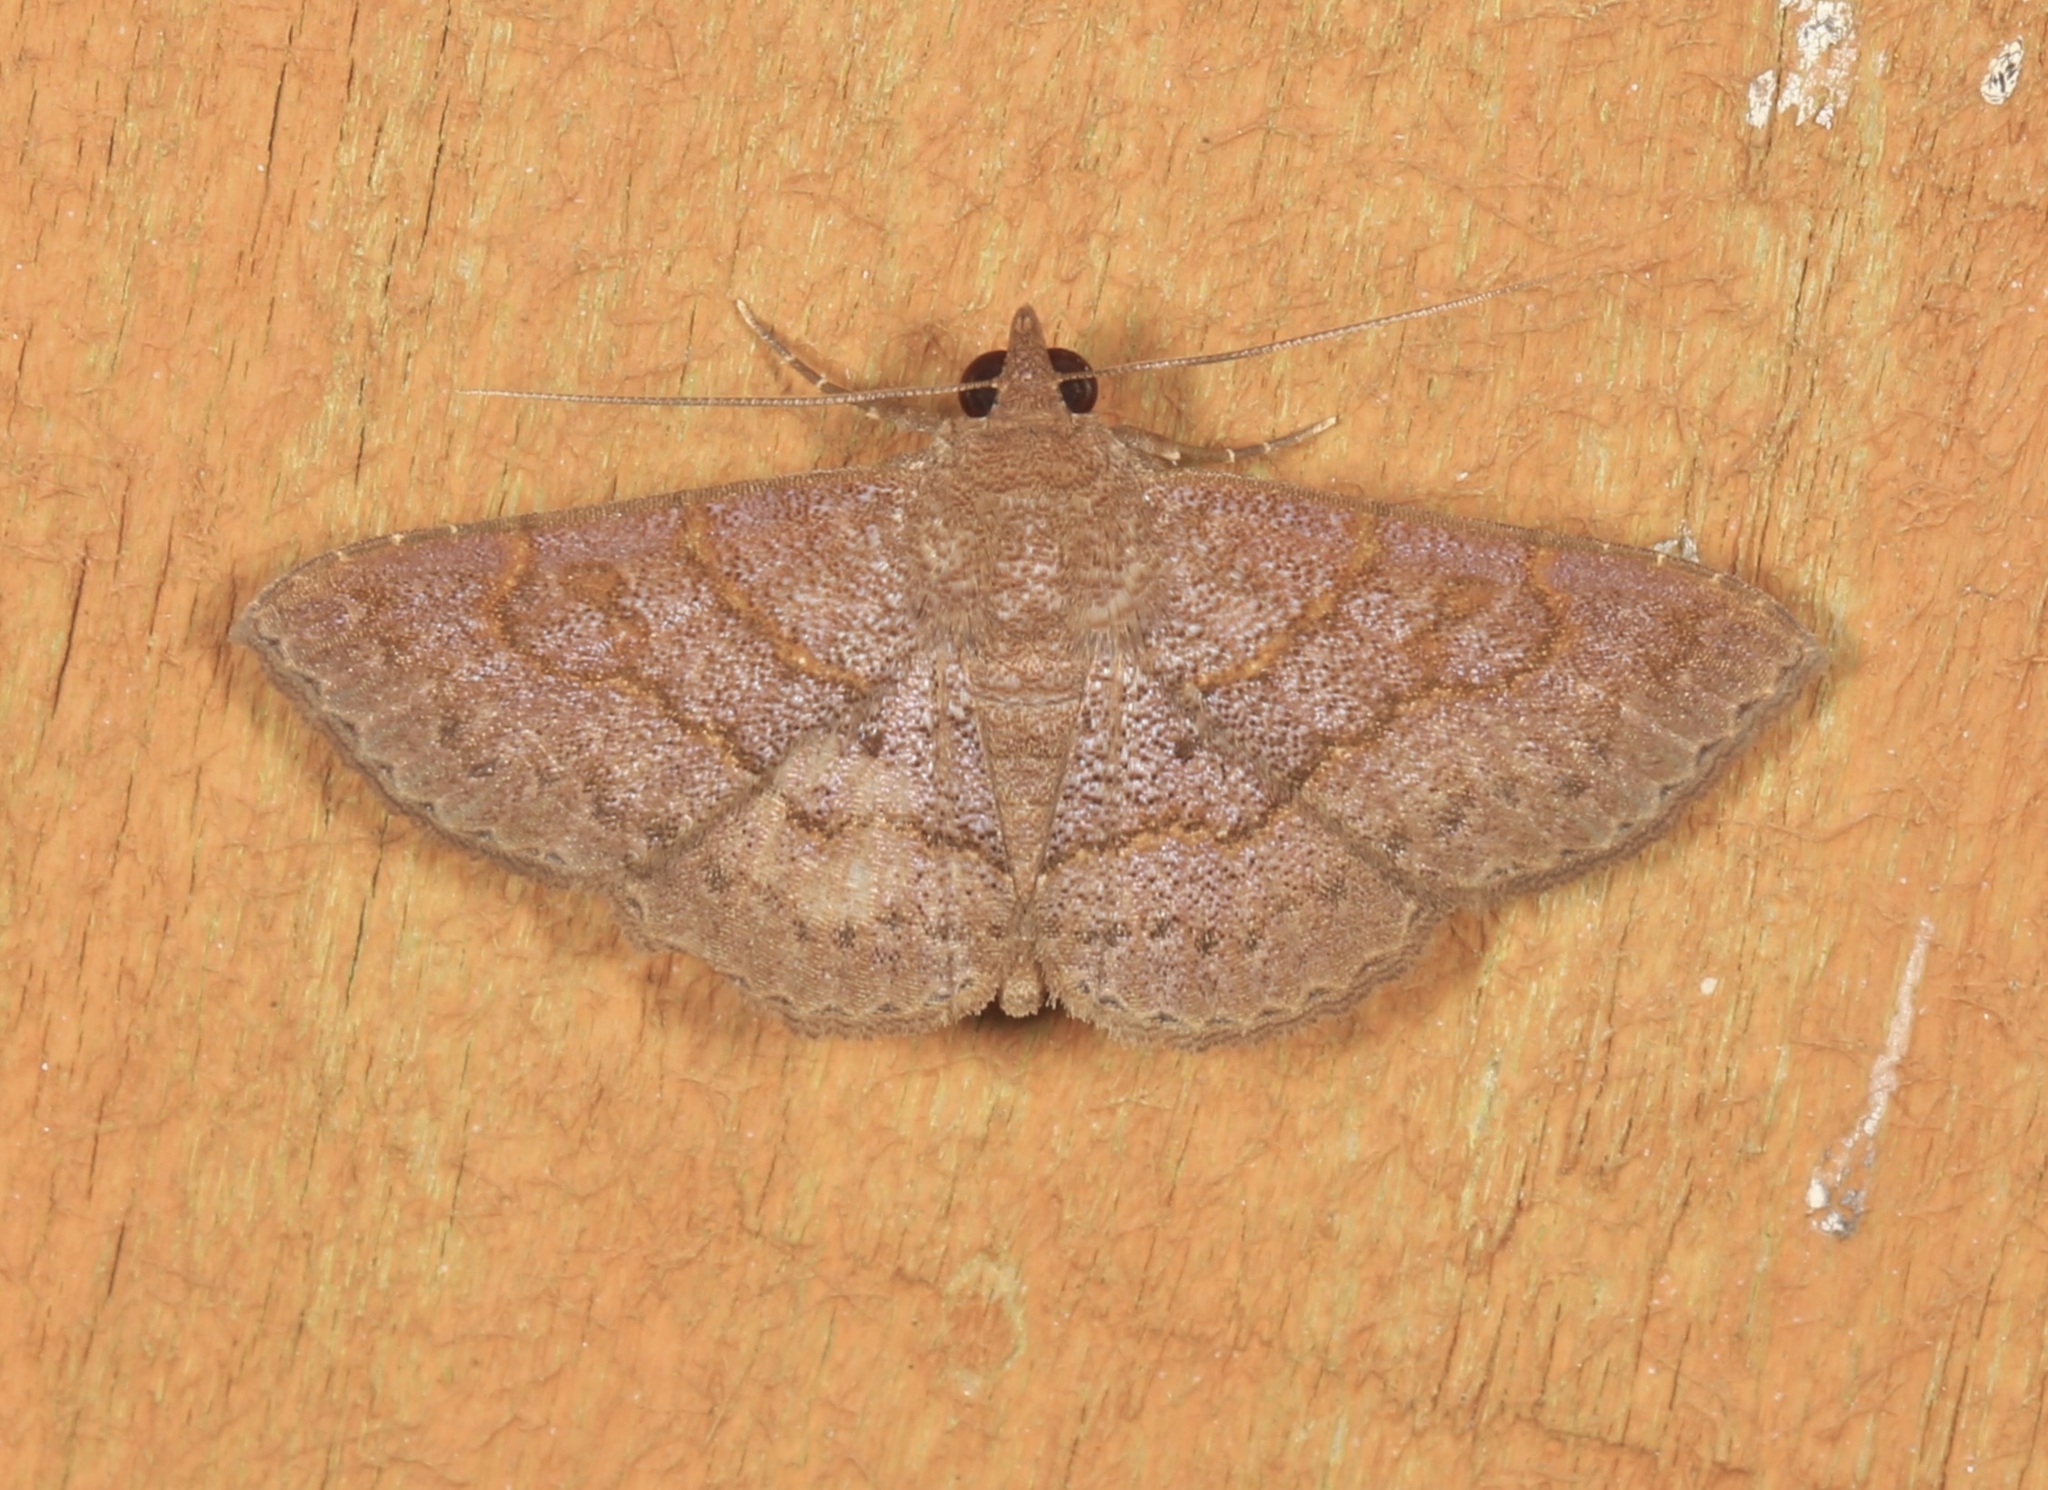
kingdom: Animalia
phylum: Arthropoda
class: Insecta
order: Lepidoptera
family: Erebidae
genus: Antiblemma
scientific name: Antiblemma perva
